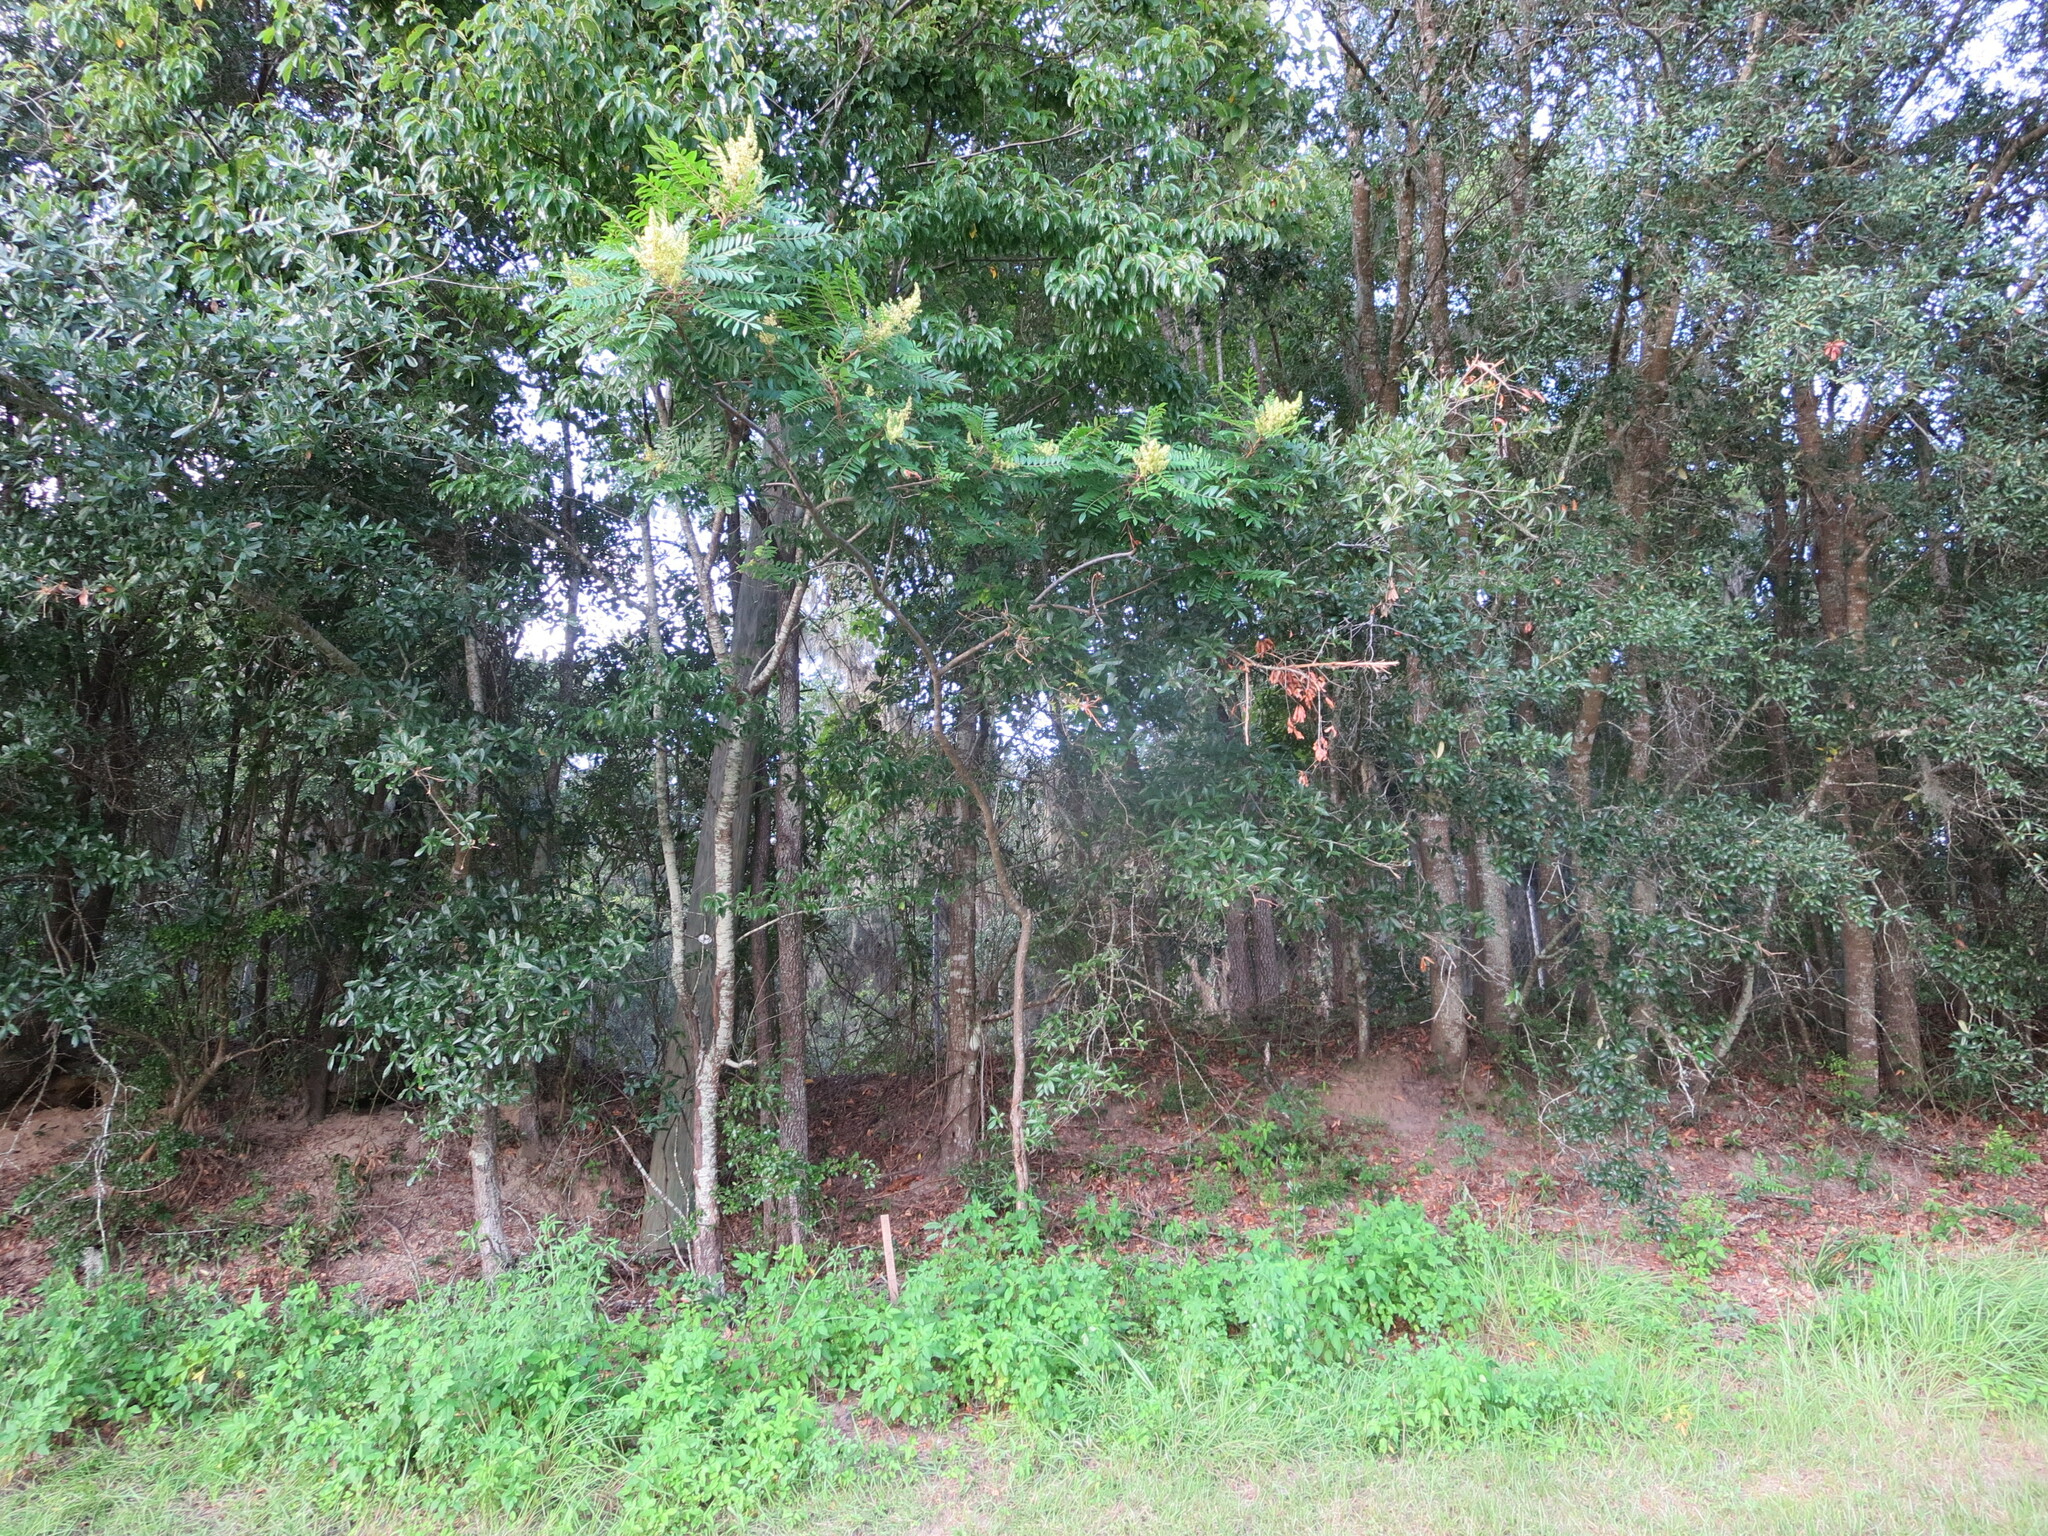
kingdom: Plantae
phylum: Tracheophyta
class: Magnoliopsida
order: Sapindales
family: Anacardiaceae
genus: Rhus
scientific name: Rhus copallina
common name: Shining sumac
